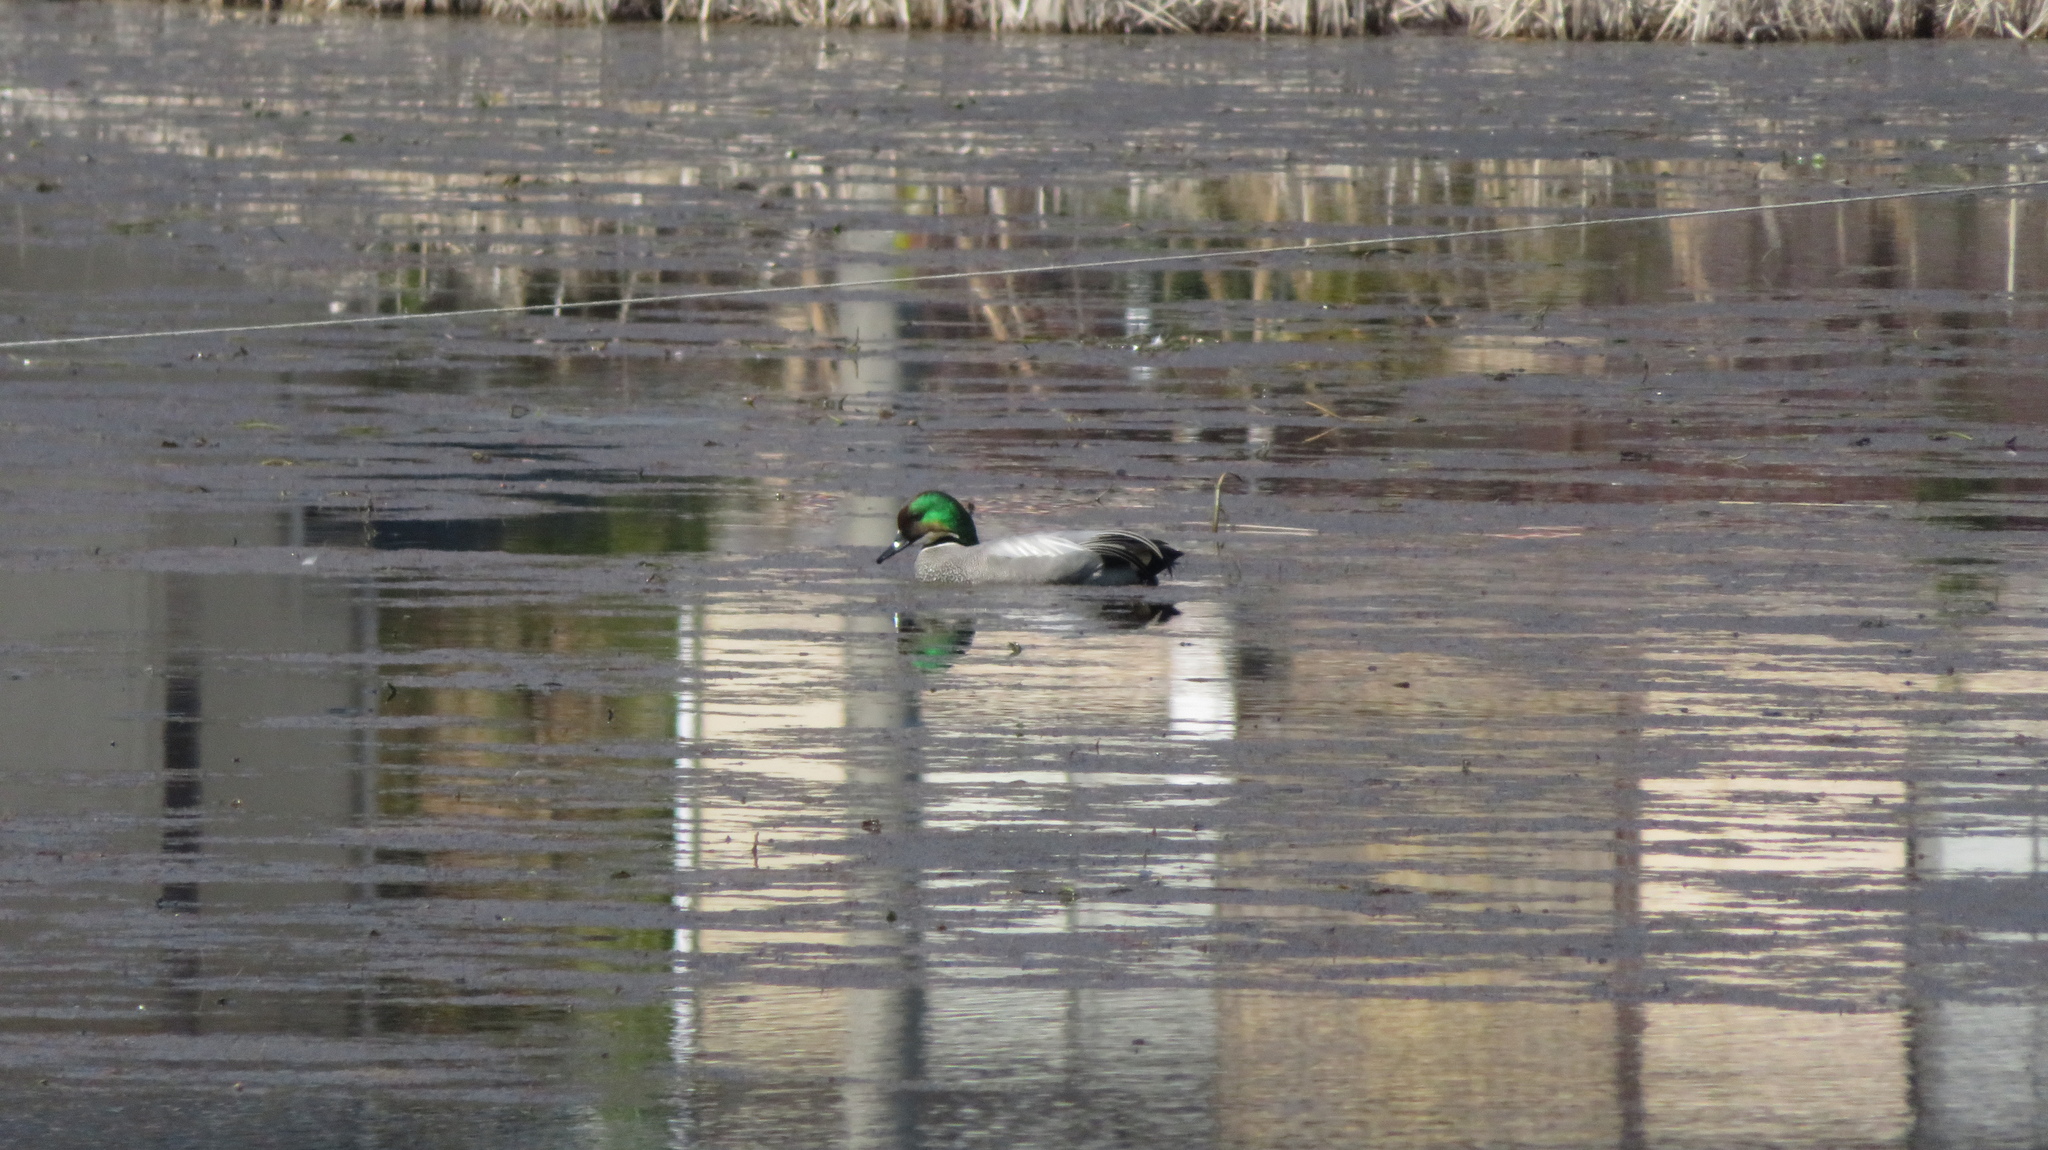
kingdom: Animalia
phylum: Chordata
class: Aves
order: Anseriformes
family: Anatidae
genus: Mareca
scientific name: Mareca falcata
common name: Falcated duck
